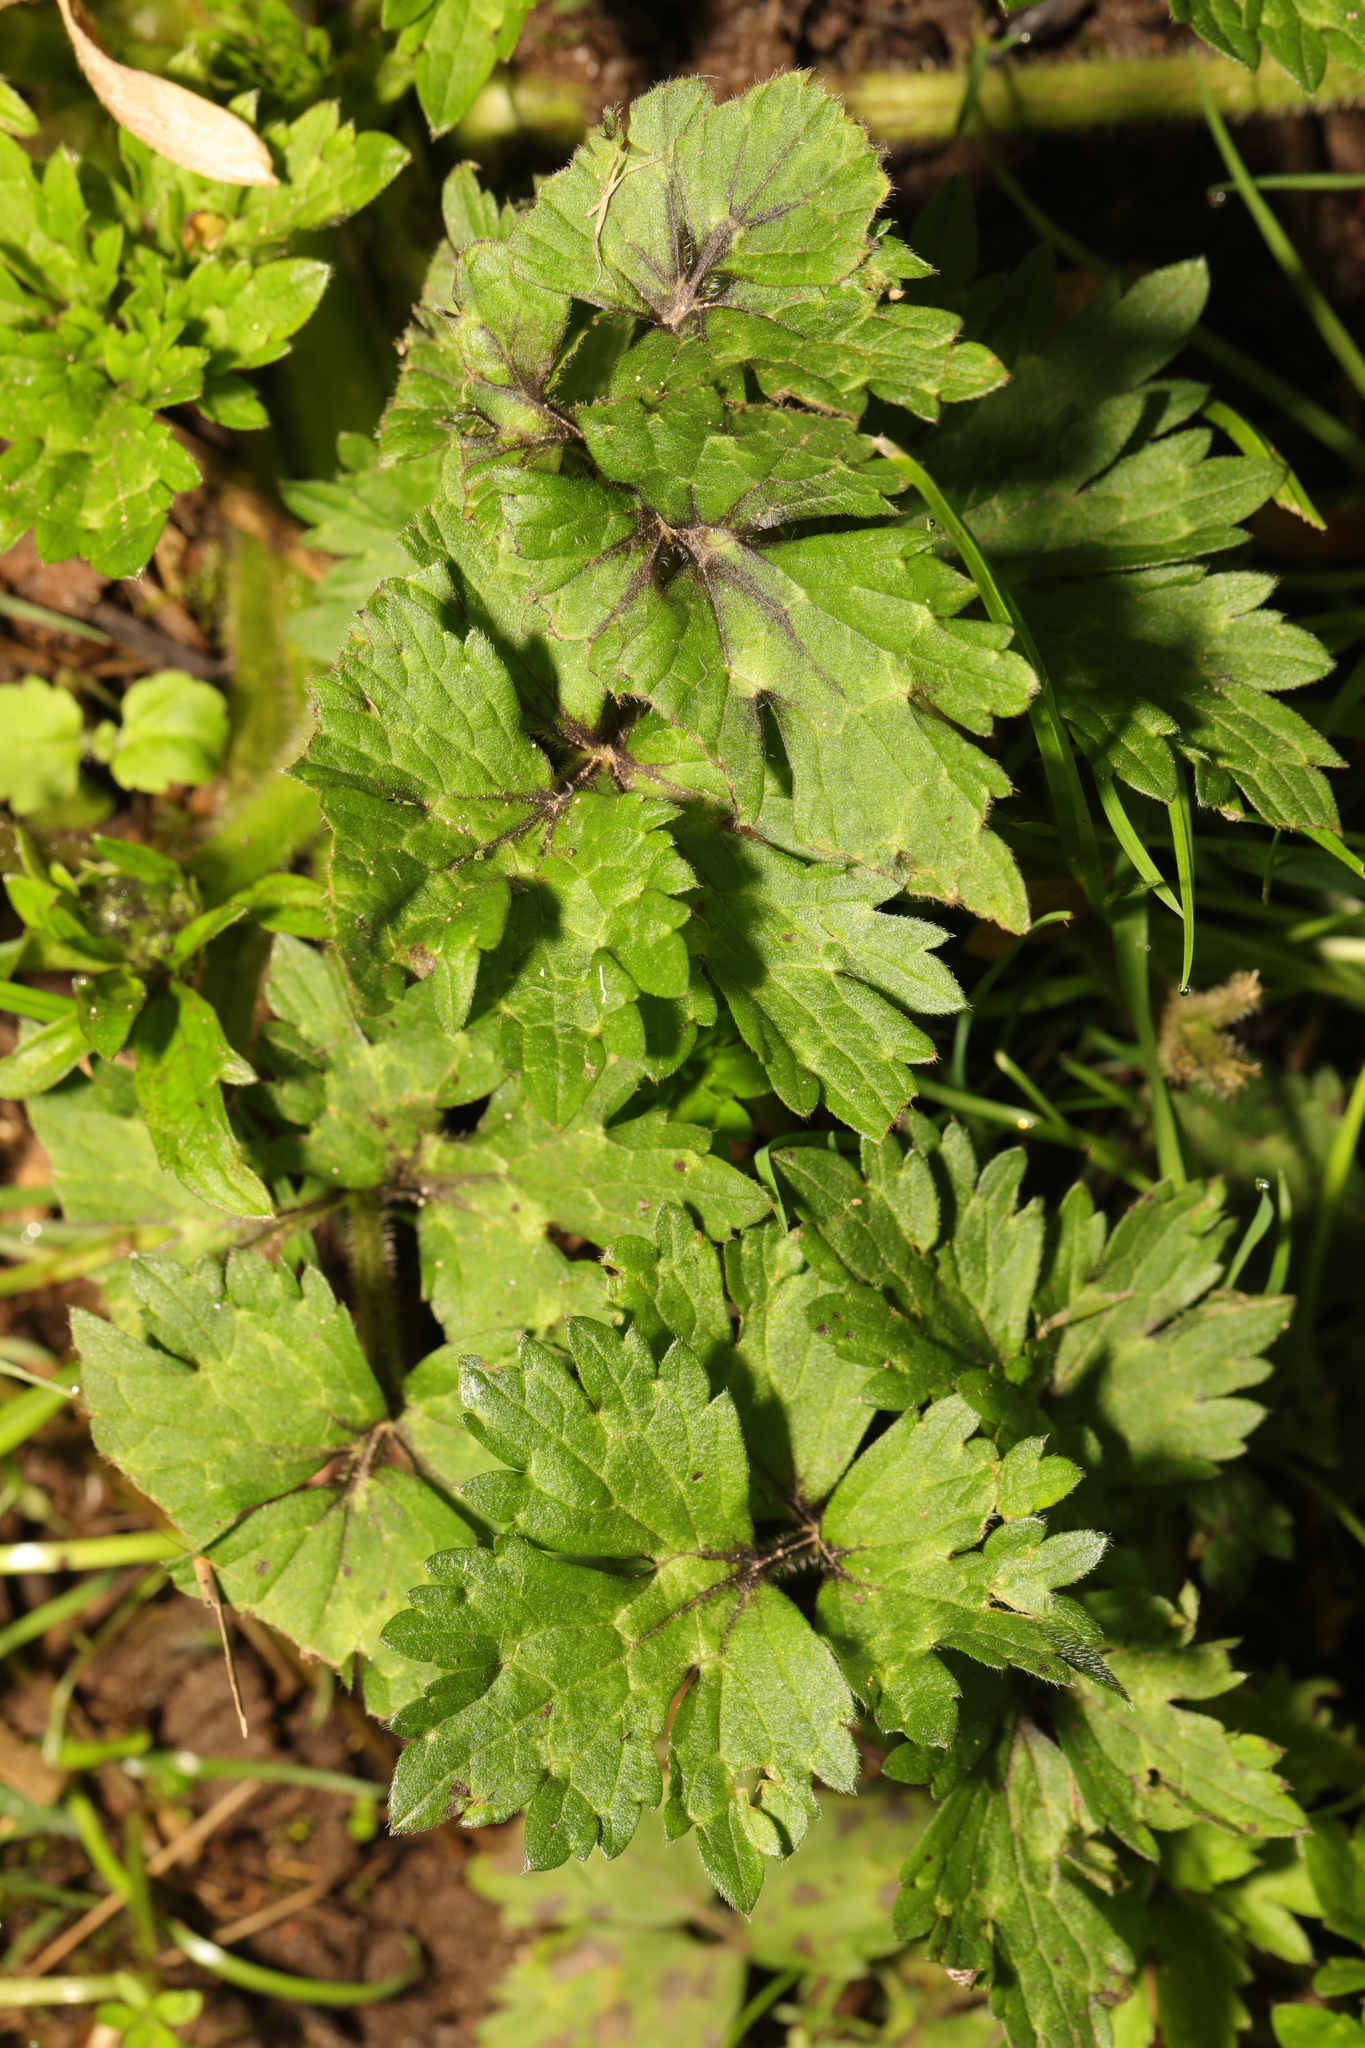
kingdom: Plantae
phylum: Tracheophyta
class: Magnoliopsida
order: Ranunculales
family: Ranunculaceae
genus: Ranunculus
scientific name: Ranunculus repens
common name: Creeping buttercup
